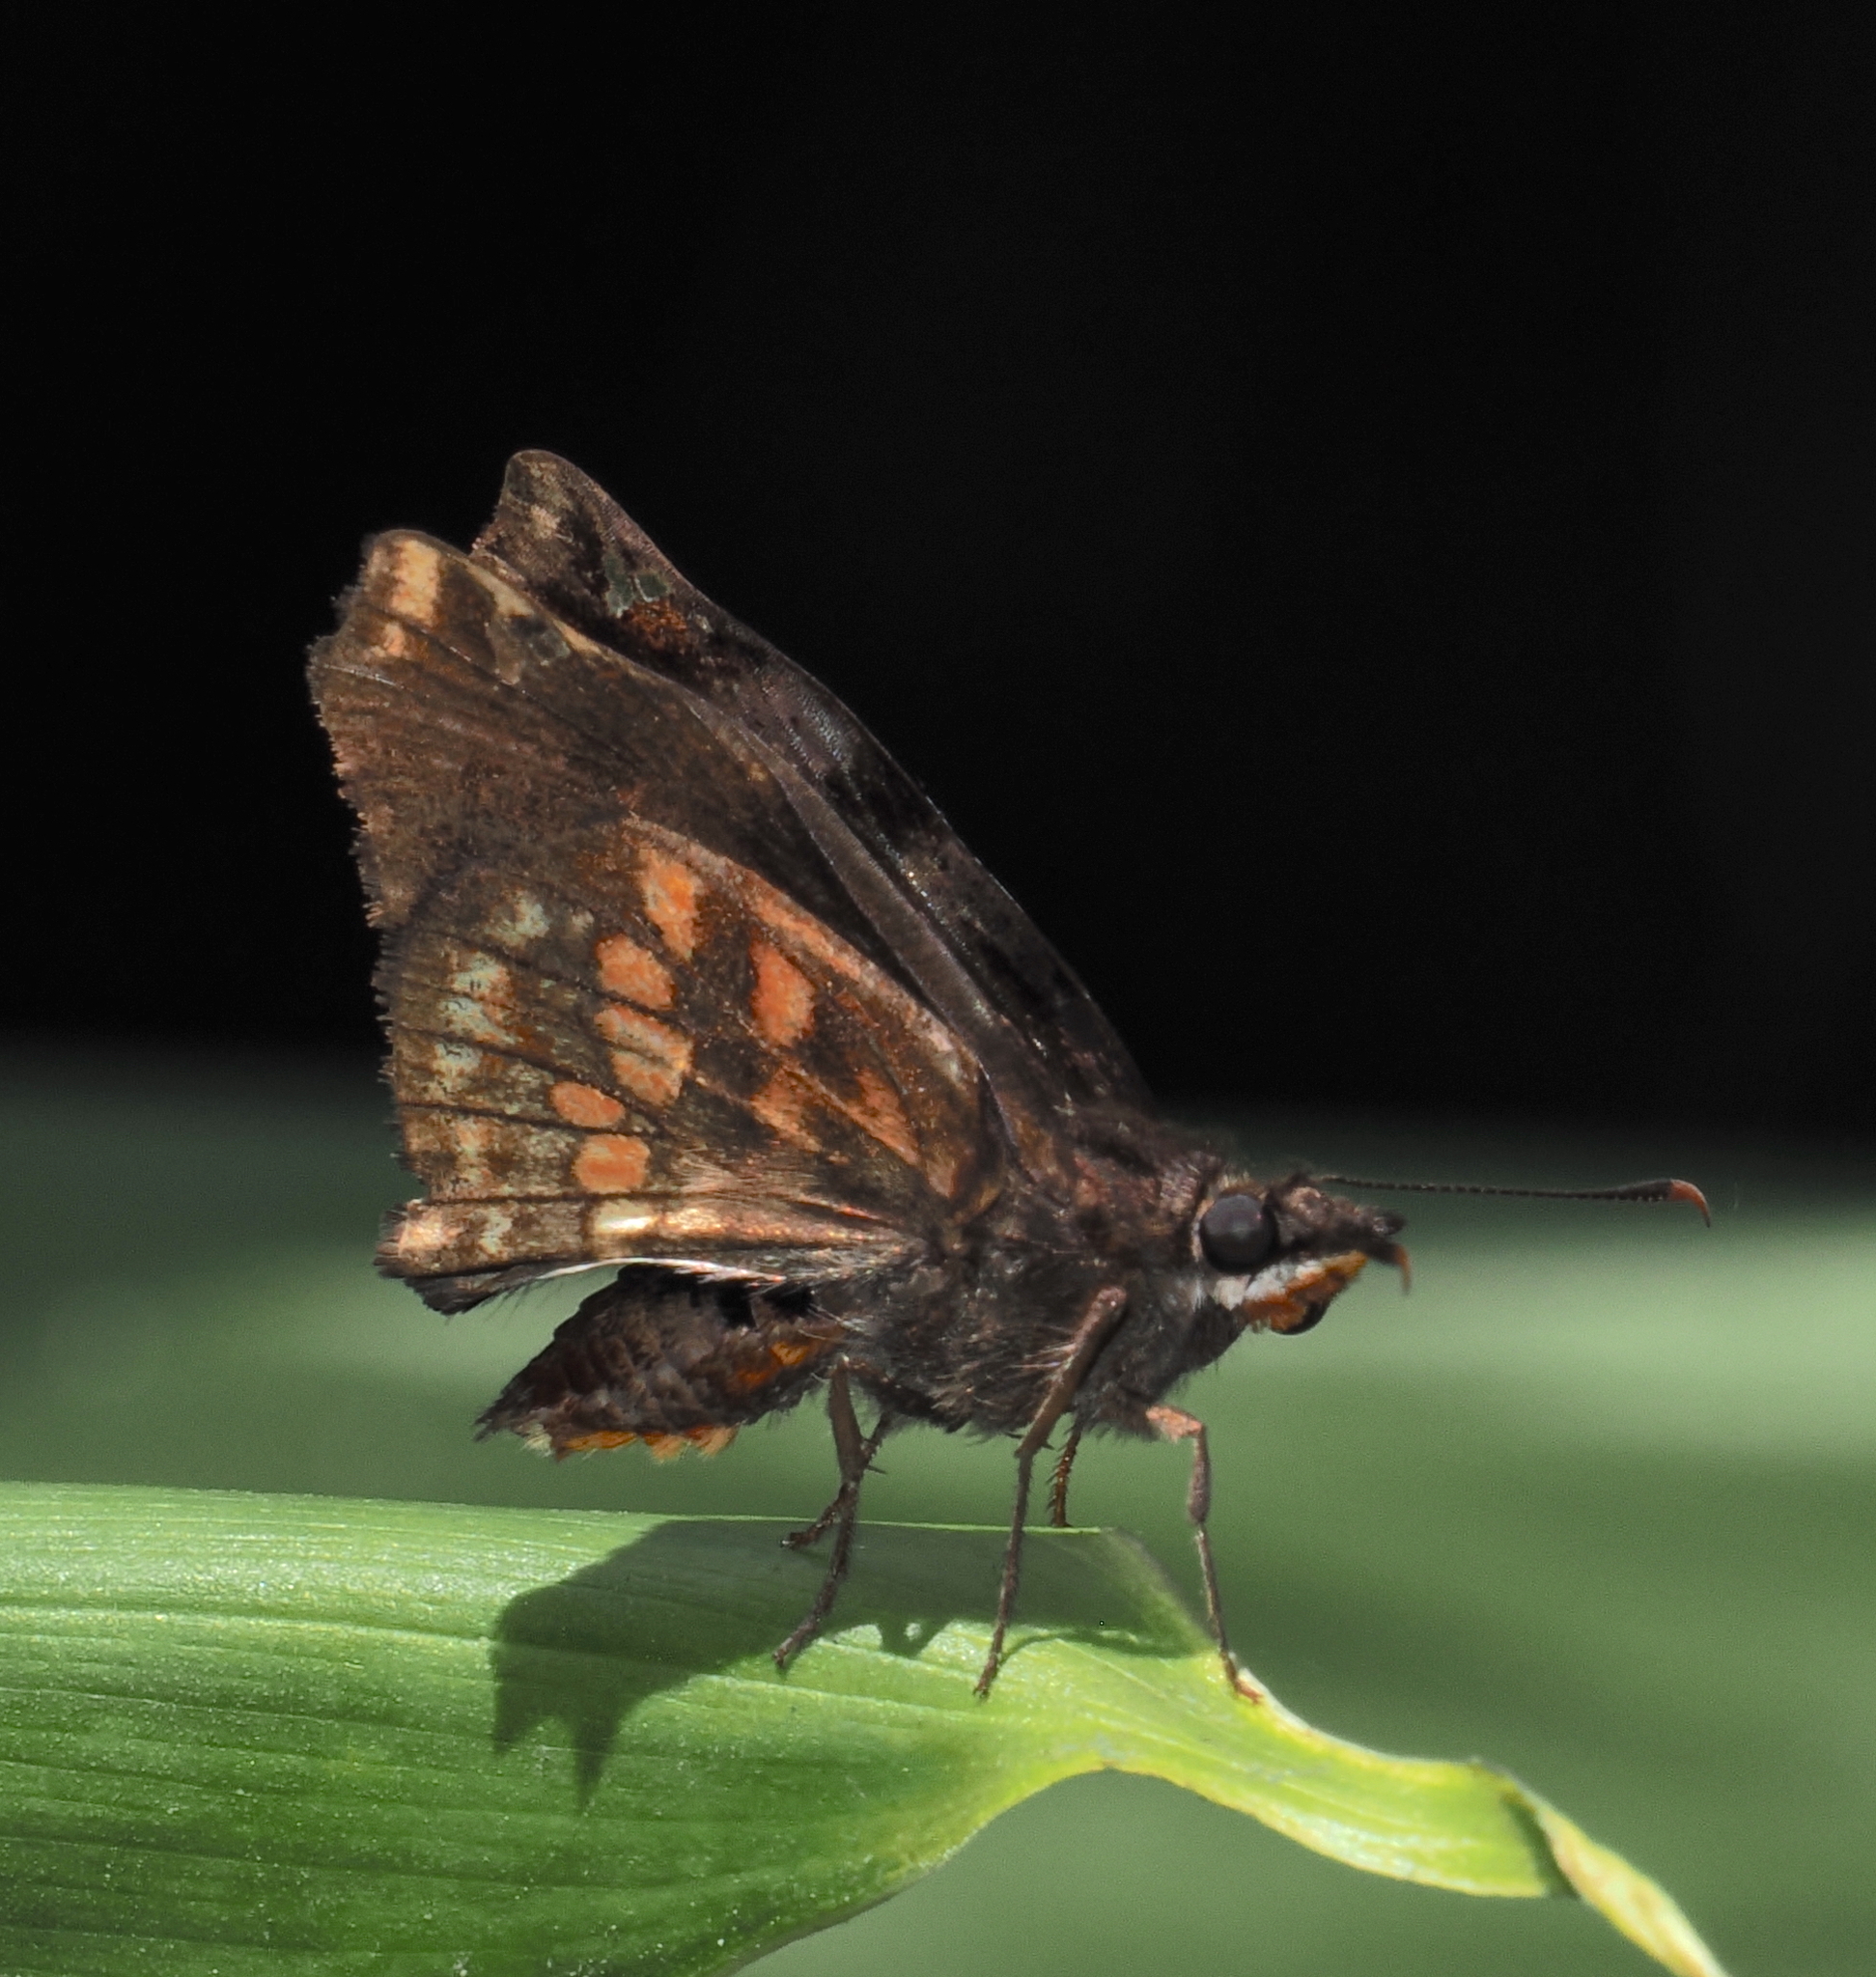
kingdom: Animalia
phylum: Arthropoda
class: Insecta
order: Lepidoptera
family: Hesperiidae
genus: Noctuana
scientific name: Noctuana haematospila
